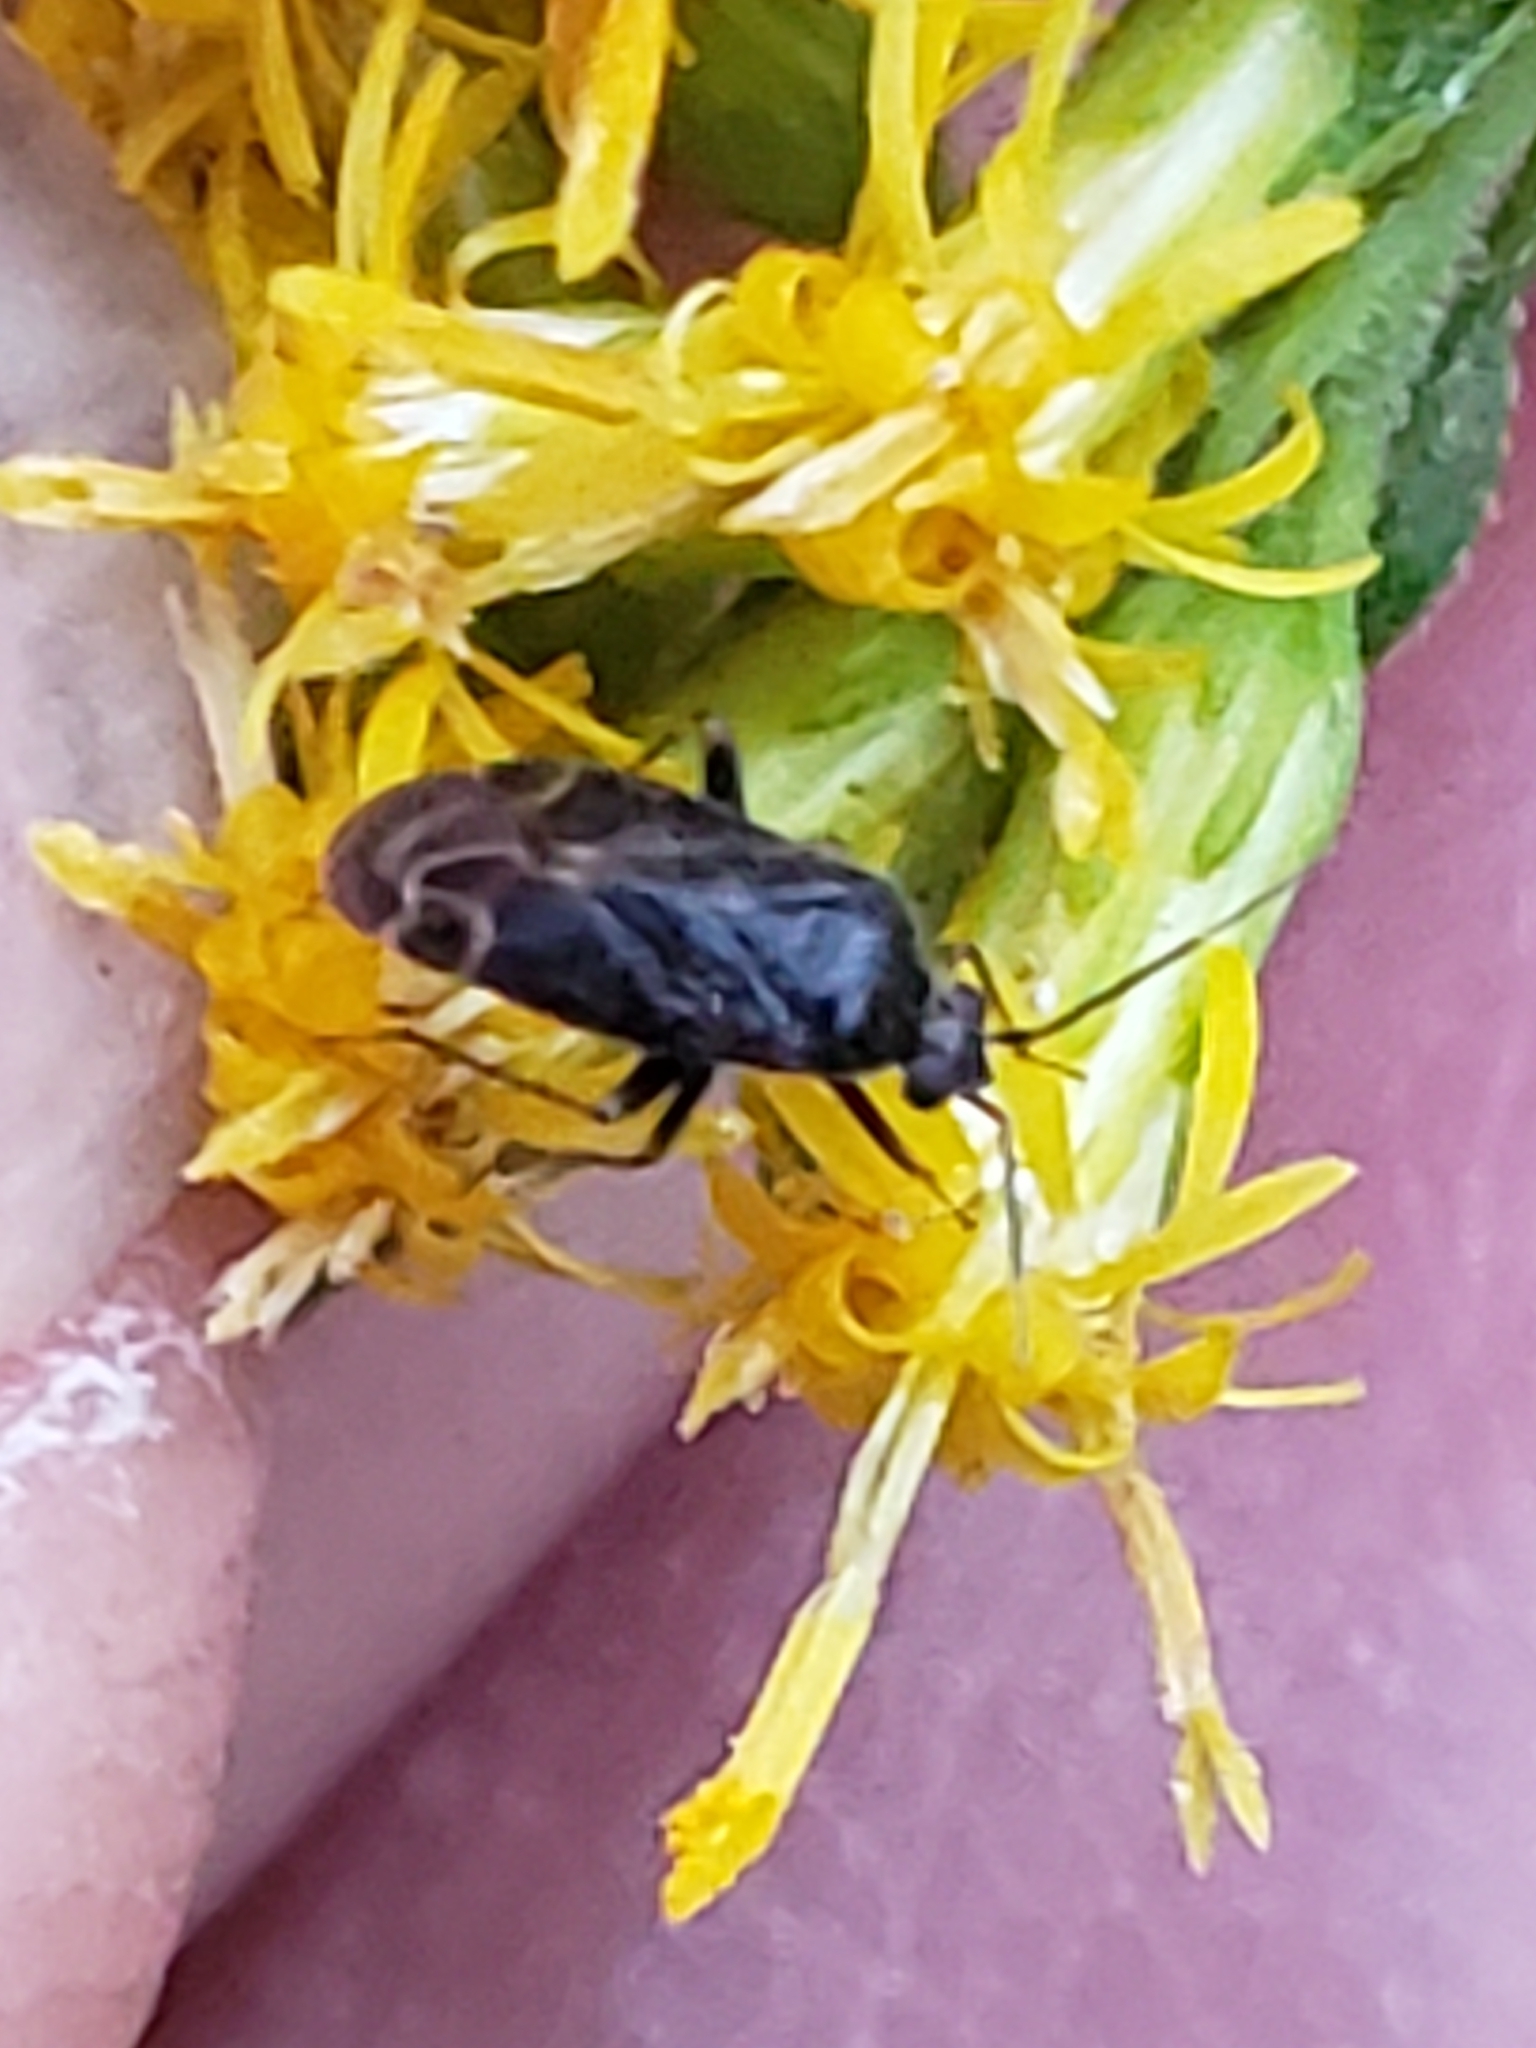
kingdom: Animalia
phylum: Arthropoda
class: Insecta
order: Hemiptera
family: Miridae
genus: Plagiognathus
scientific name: Plagiognathus politus
